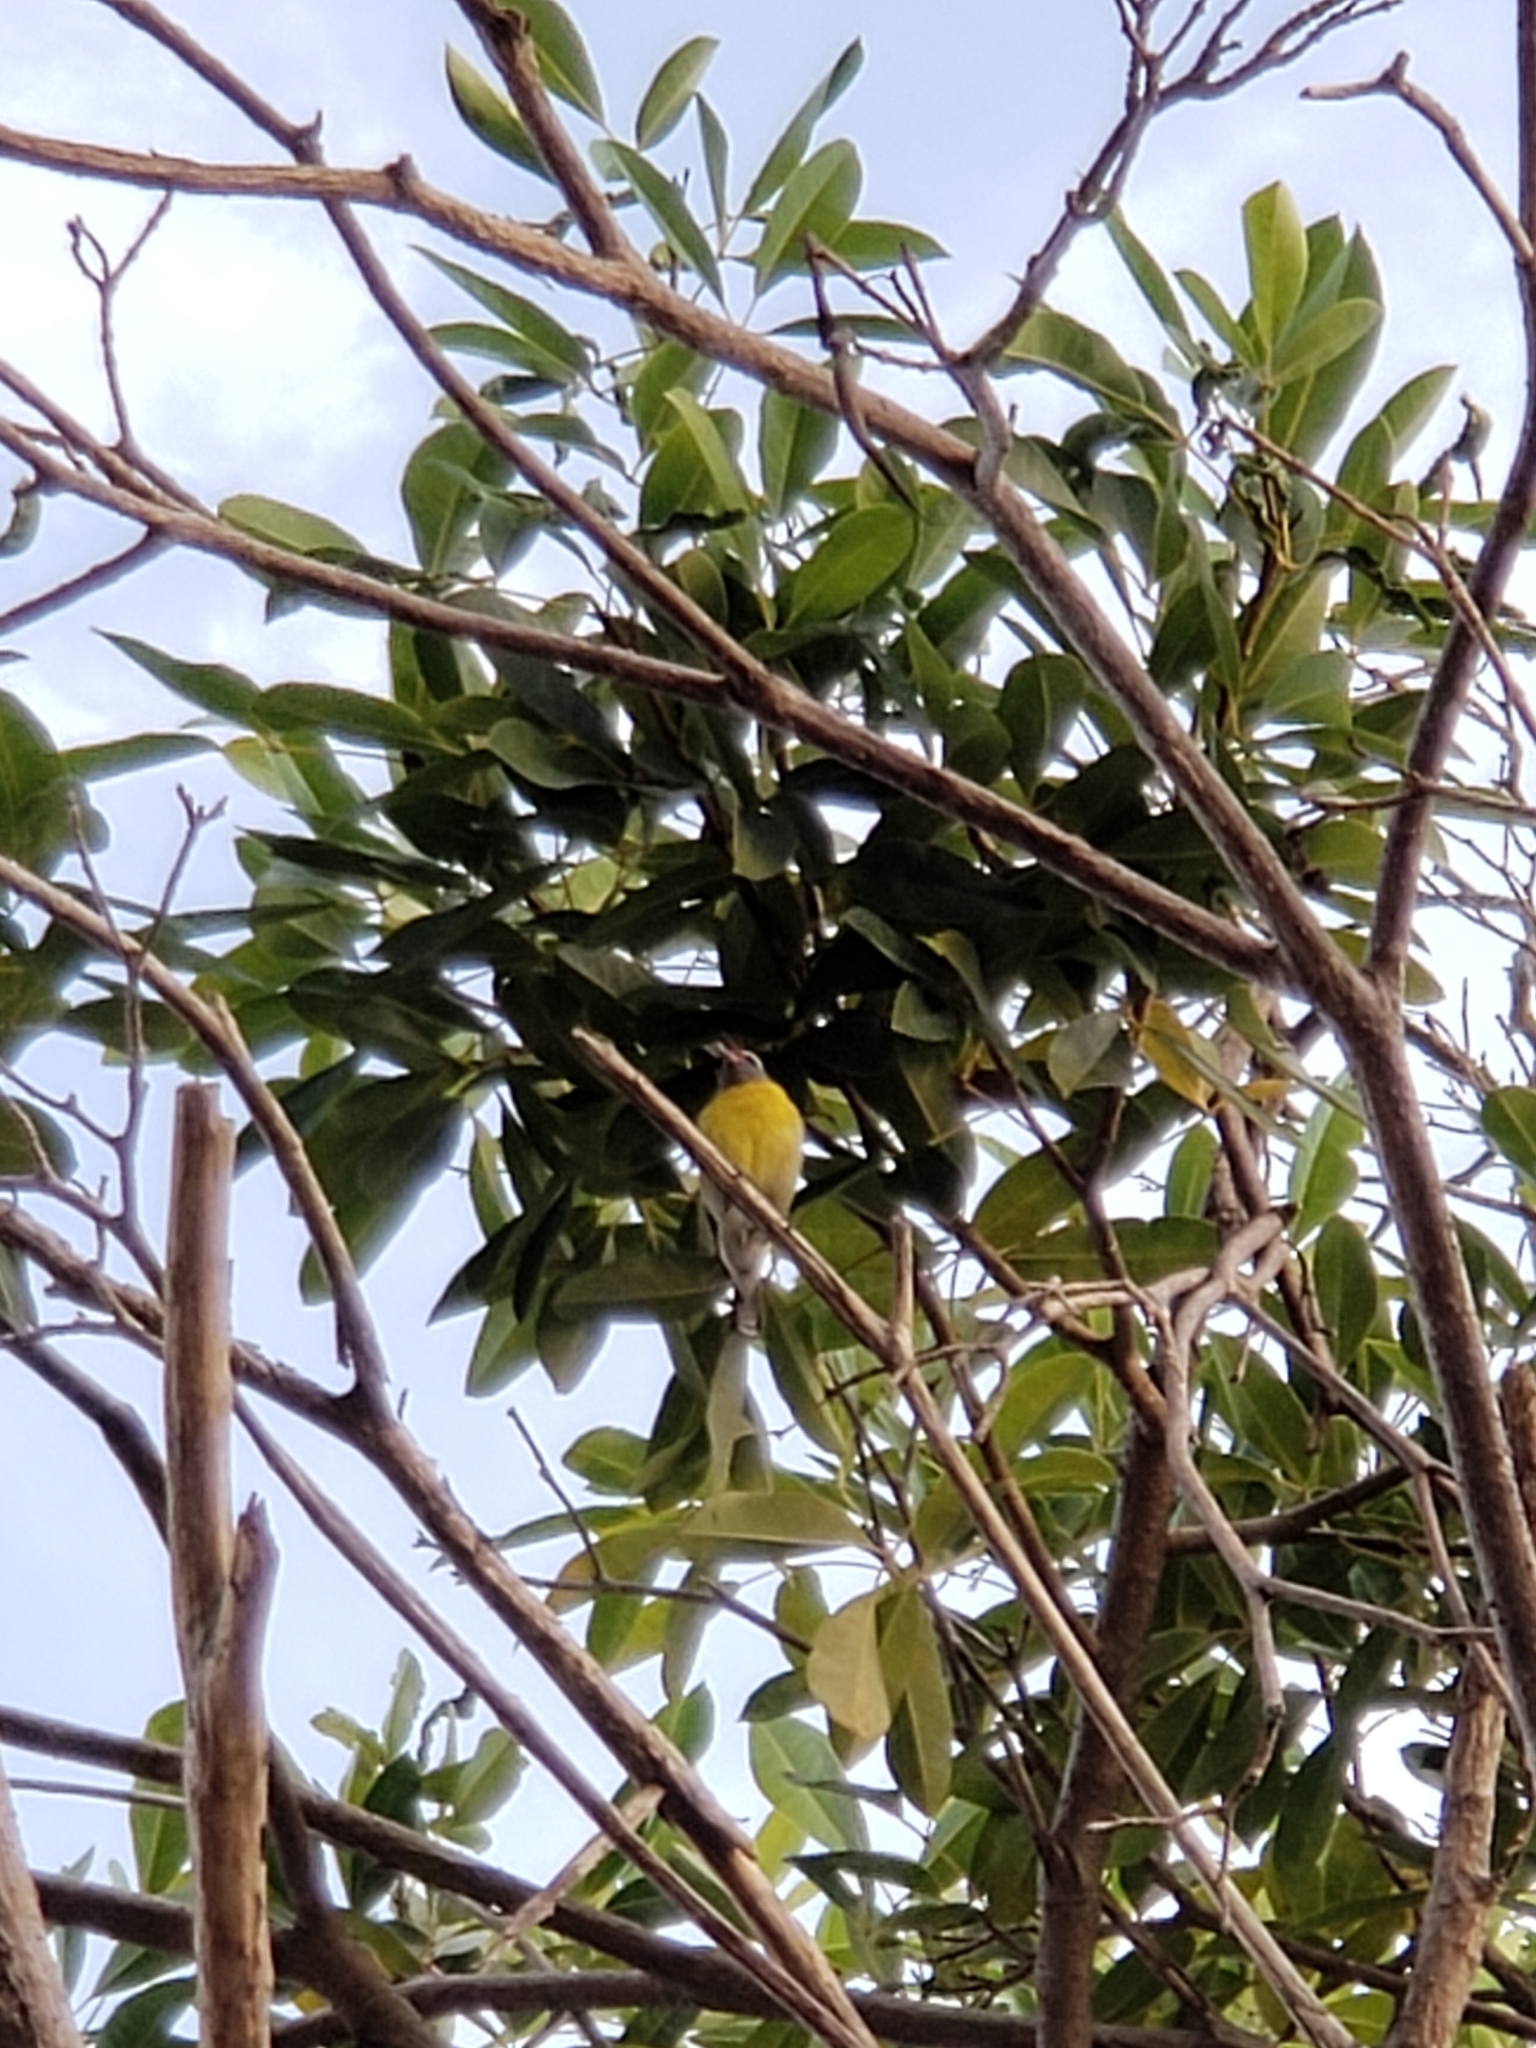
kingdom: Animalia
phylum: Chordata
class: Aves
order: Passeriformes
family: Thraupidae
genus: Coereba
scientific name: Coereba flaveola
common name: Bananaquit
